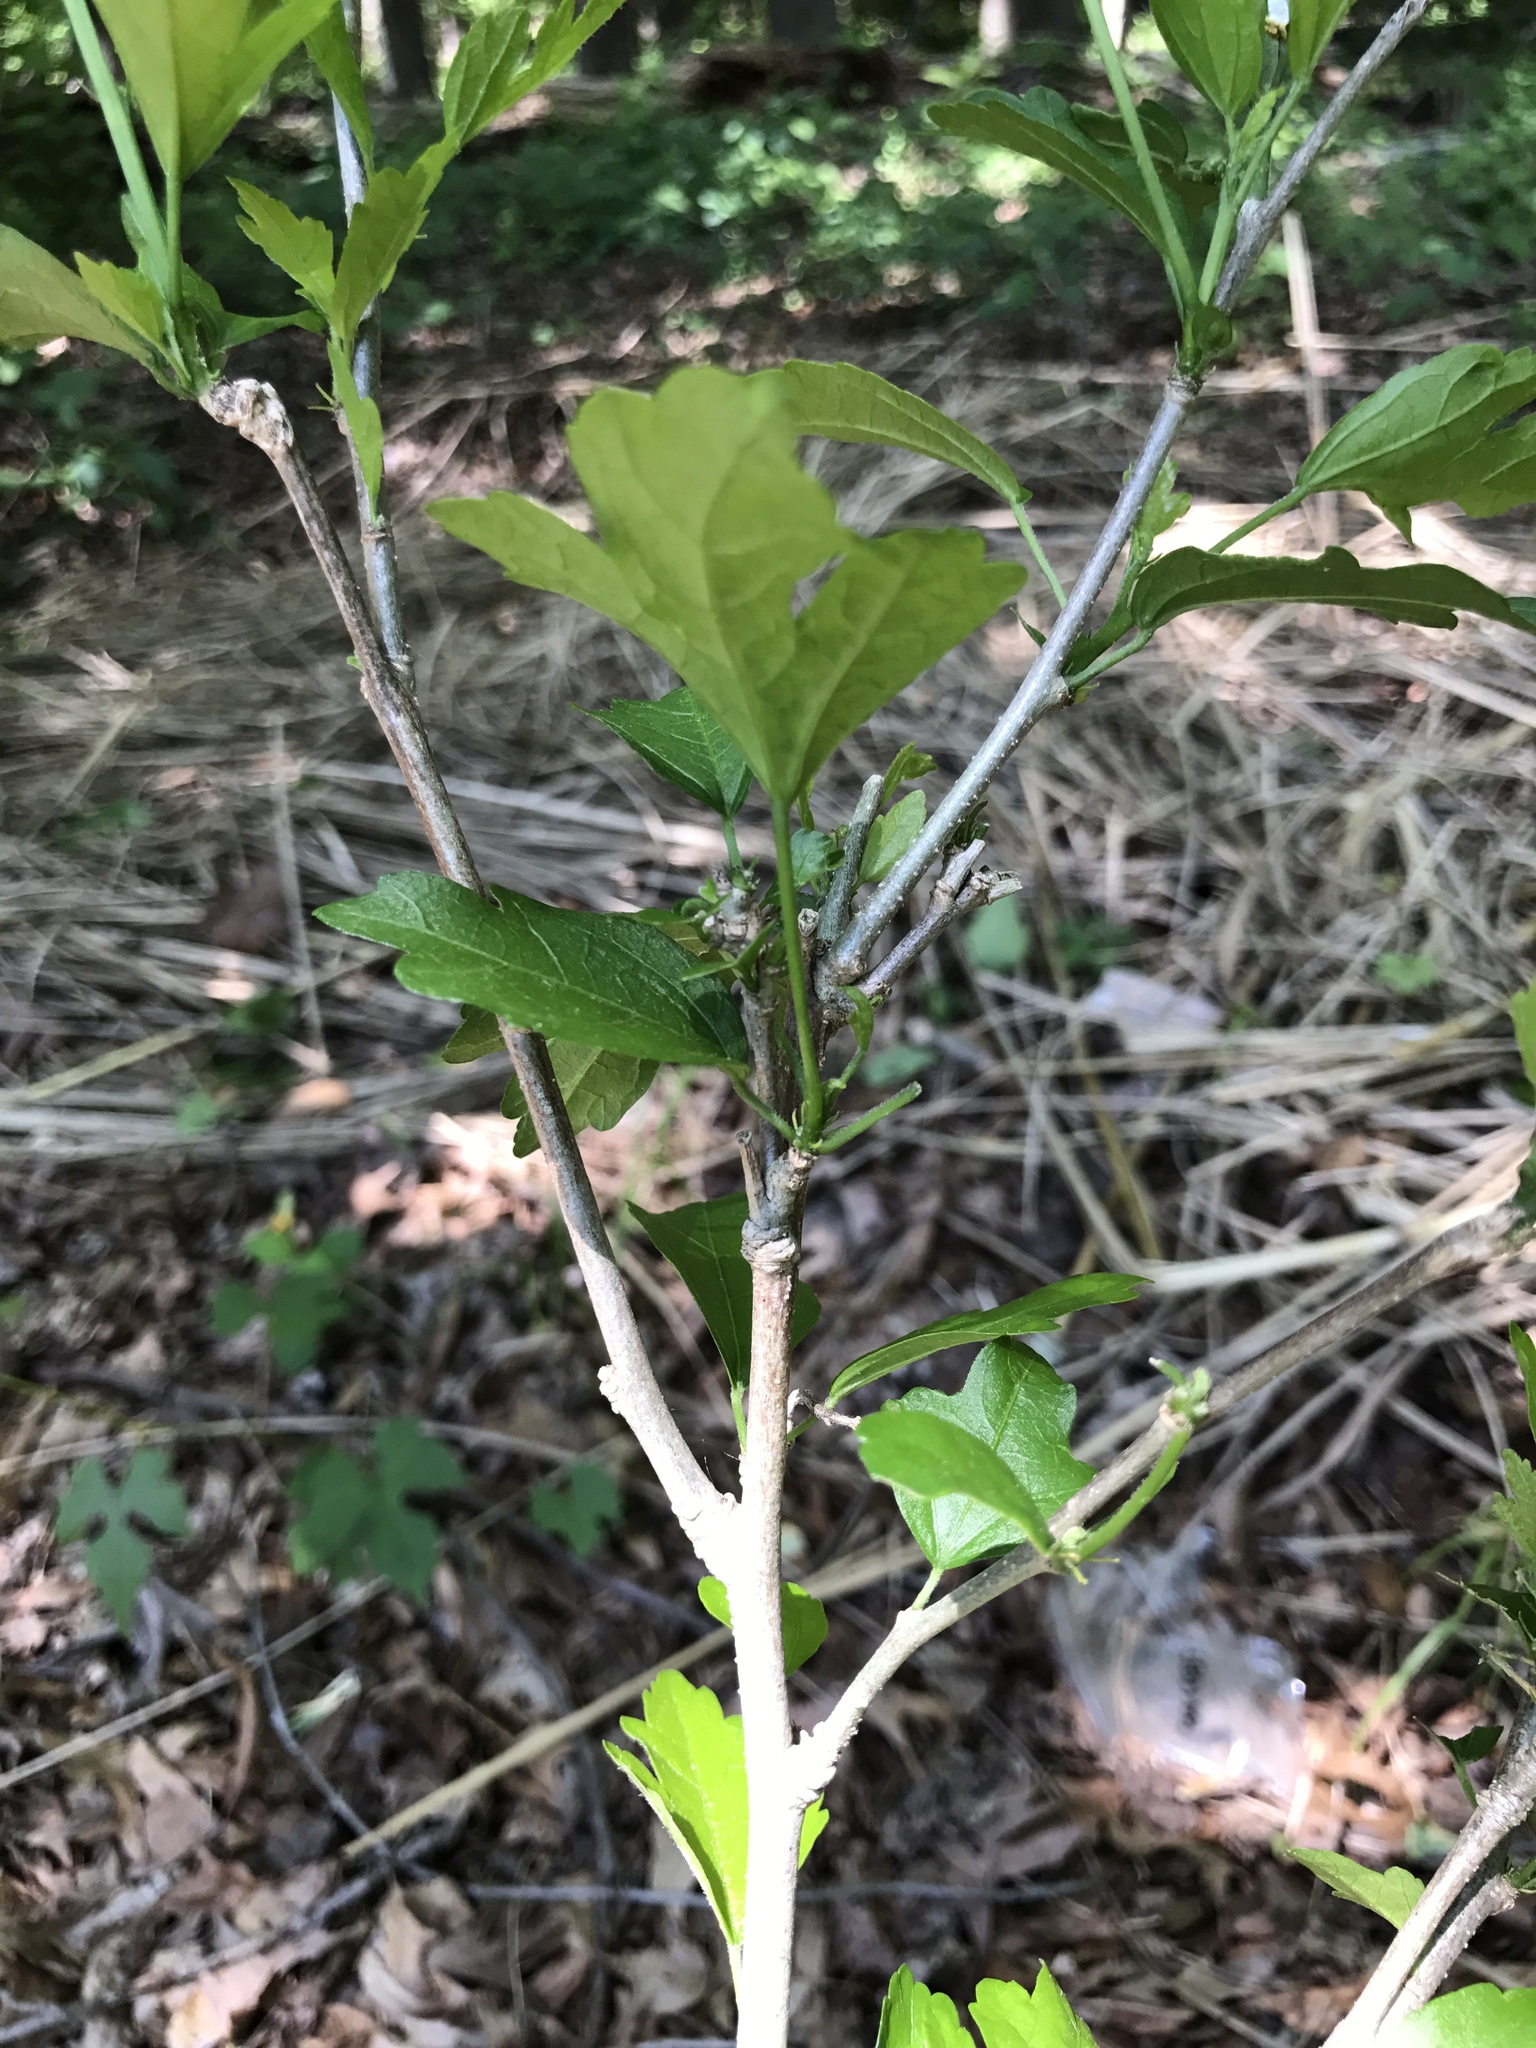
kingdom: Plantae
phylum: Tracheophyta
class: Magnoliopsida
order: Malvales
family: Malvaceae
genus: Hibiscus
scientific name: Hibiscus syriacus
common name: Syrian ketmia
